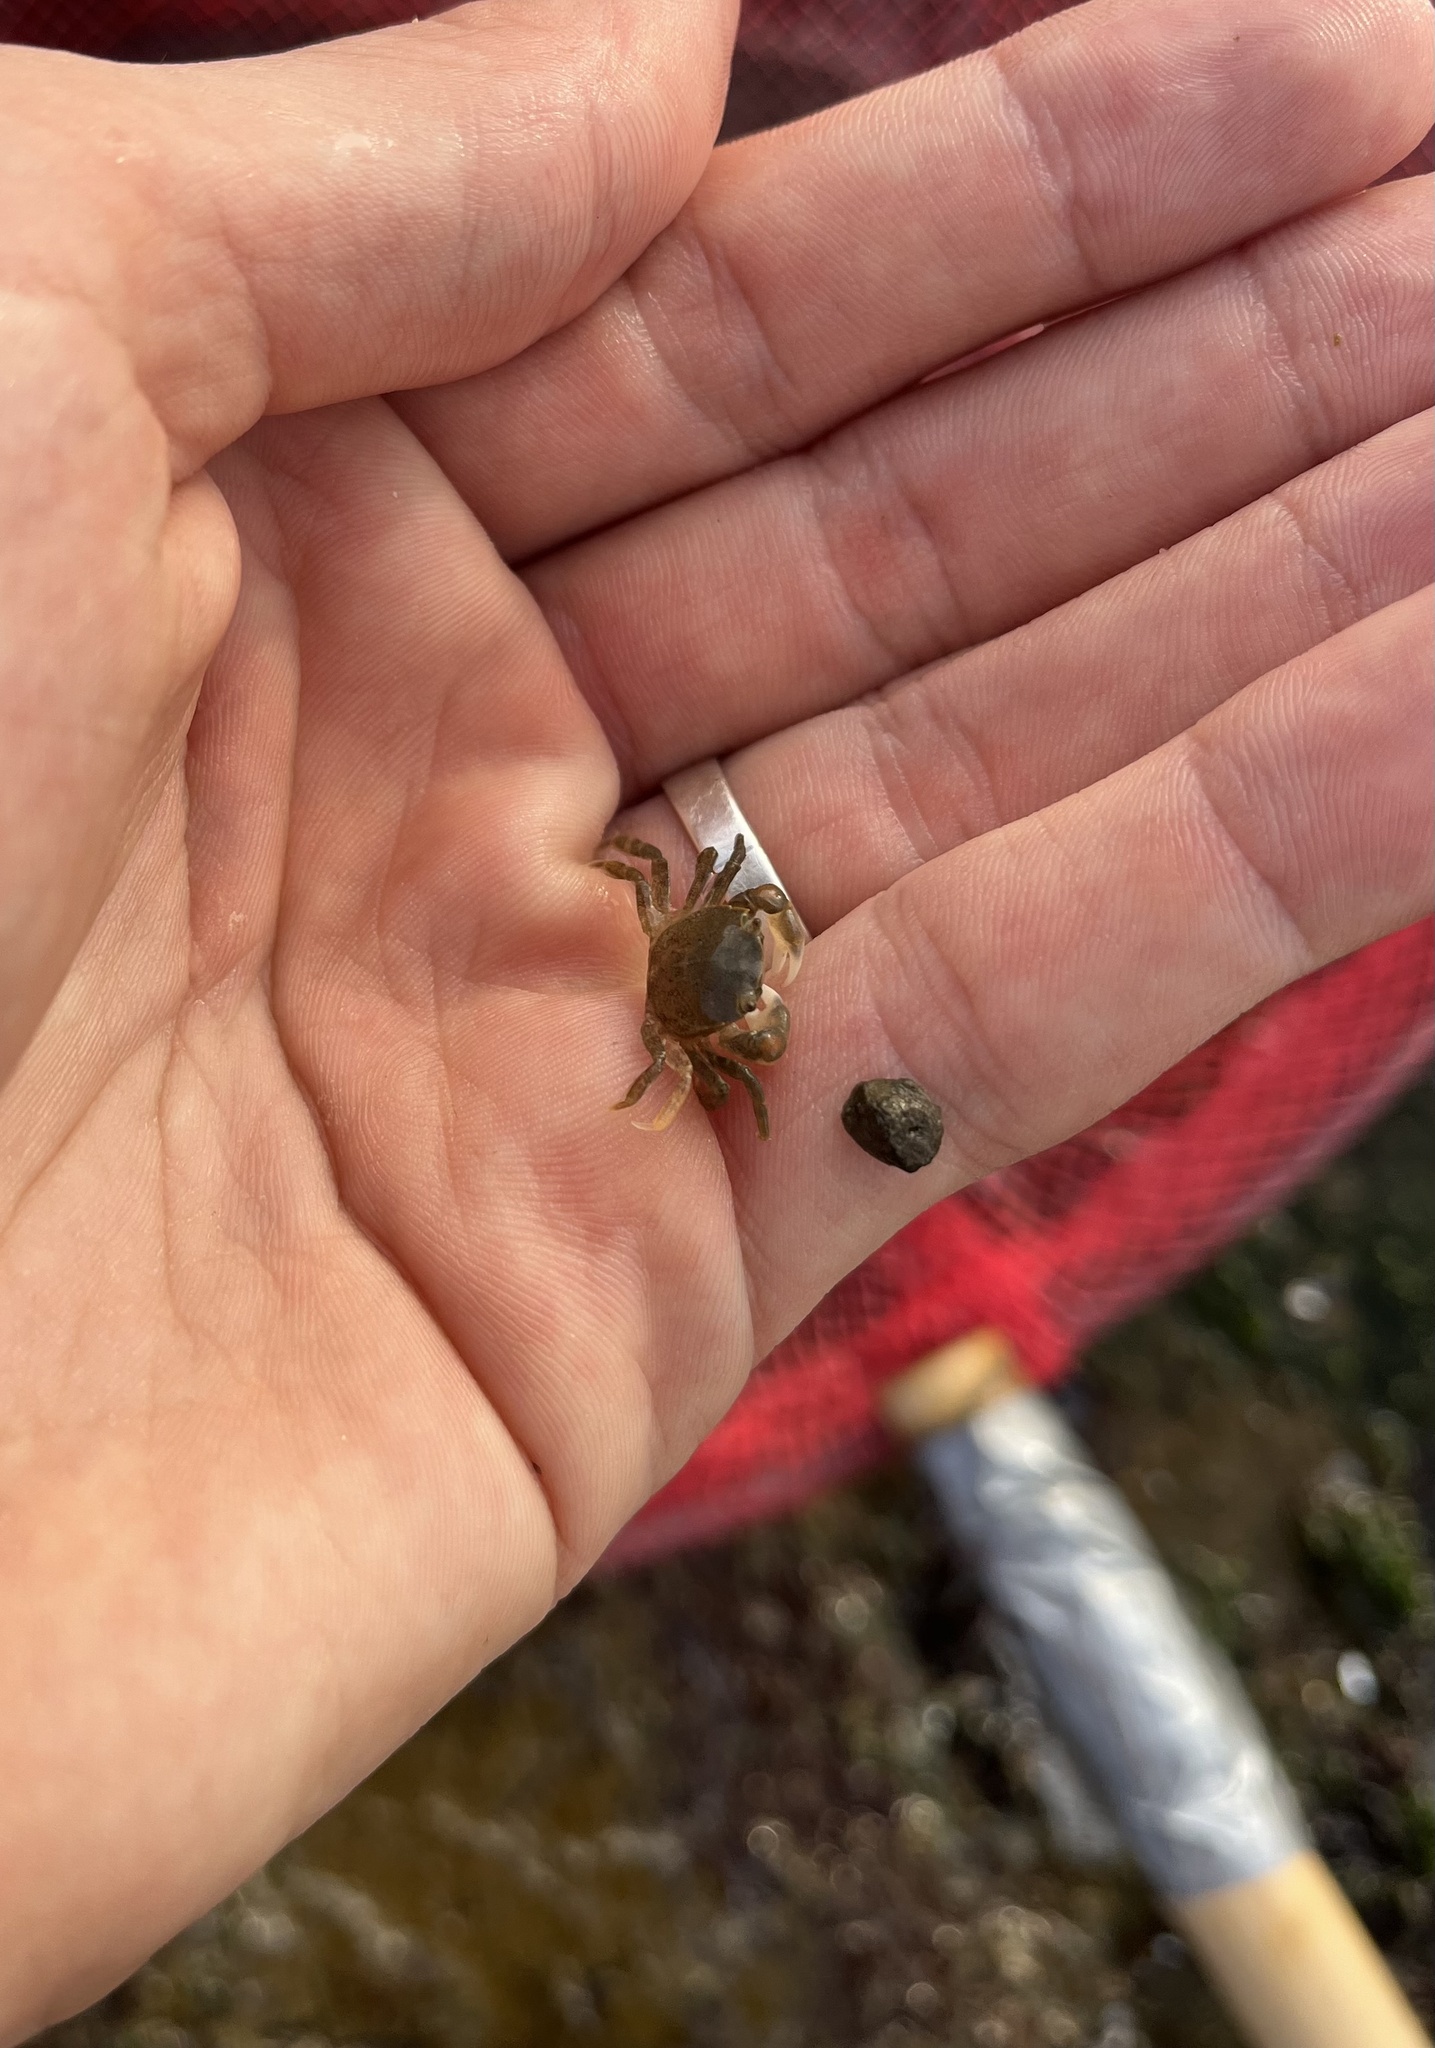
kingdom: Animalia
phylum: Arthropoda
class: Malacostraca
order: Decapoda
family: Varunidae
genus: Neohelice
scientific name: Neohelice granulata
